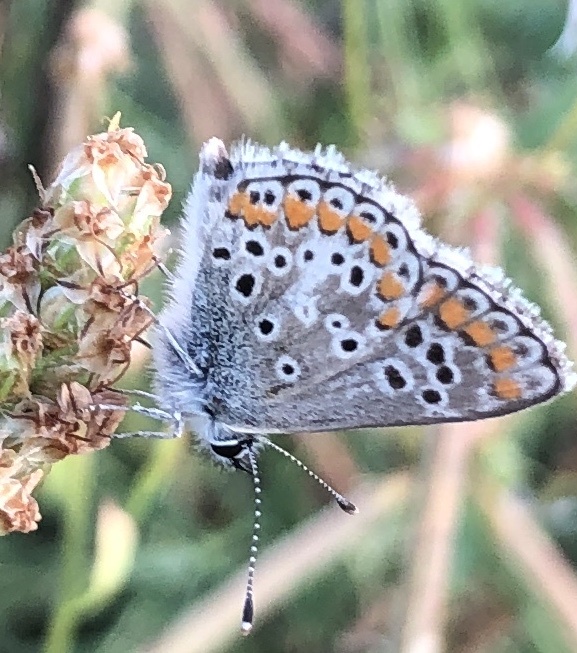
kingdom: Animalia
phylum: Arthropoda
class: Insecta
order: Lepidoptera
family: Lycaenidae
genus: Aricia
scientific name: Aricia agestis
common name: Brown argus
